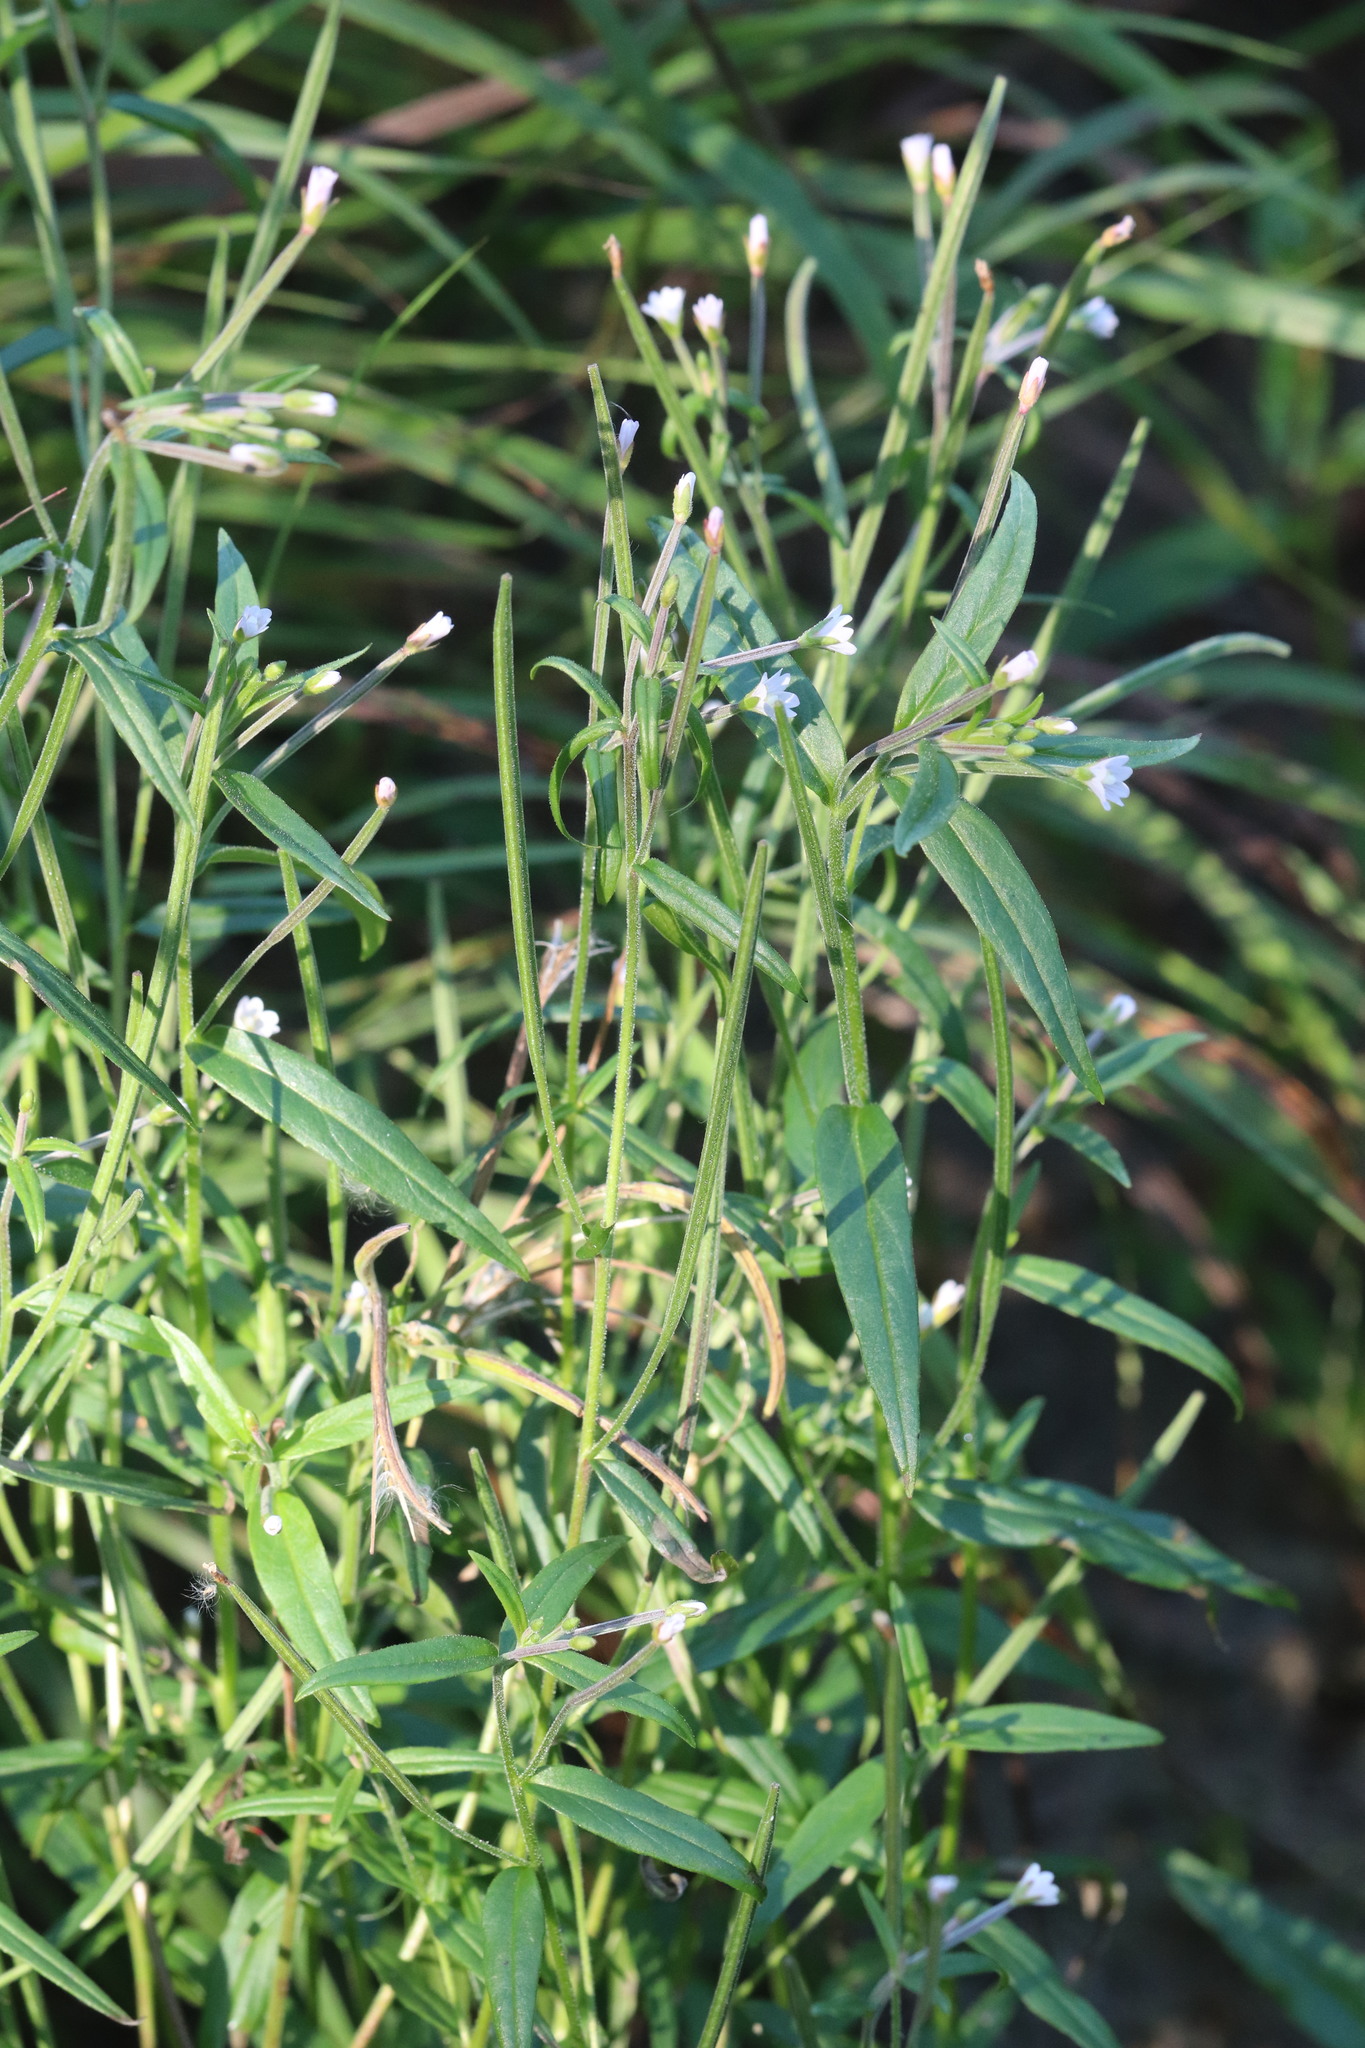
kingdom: Plantae
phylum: Tracheophyta
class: Magnoliopsida
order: Myrtales
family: Onagraceae
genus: Epilobium
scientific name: Epilobium palustre
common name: Marsh willowherb
